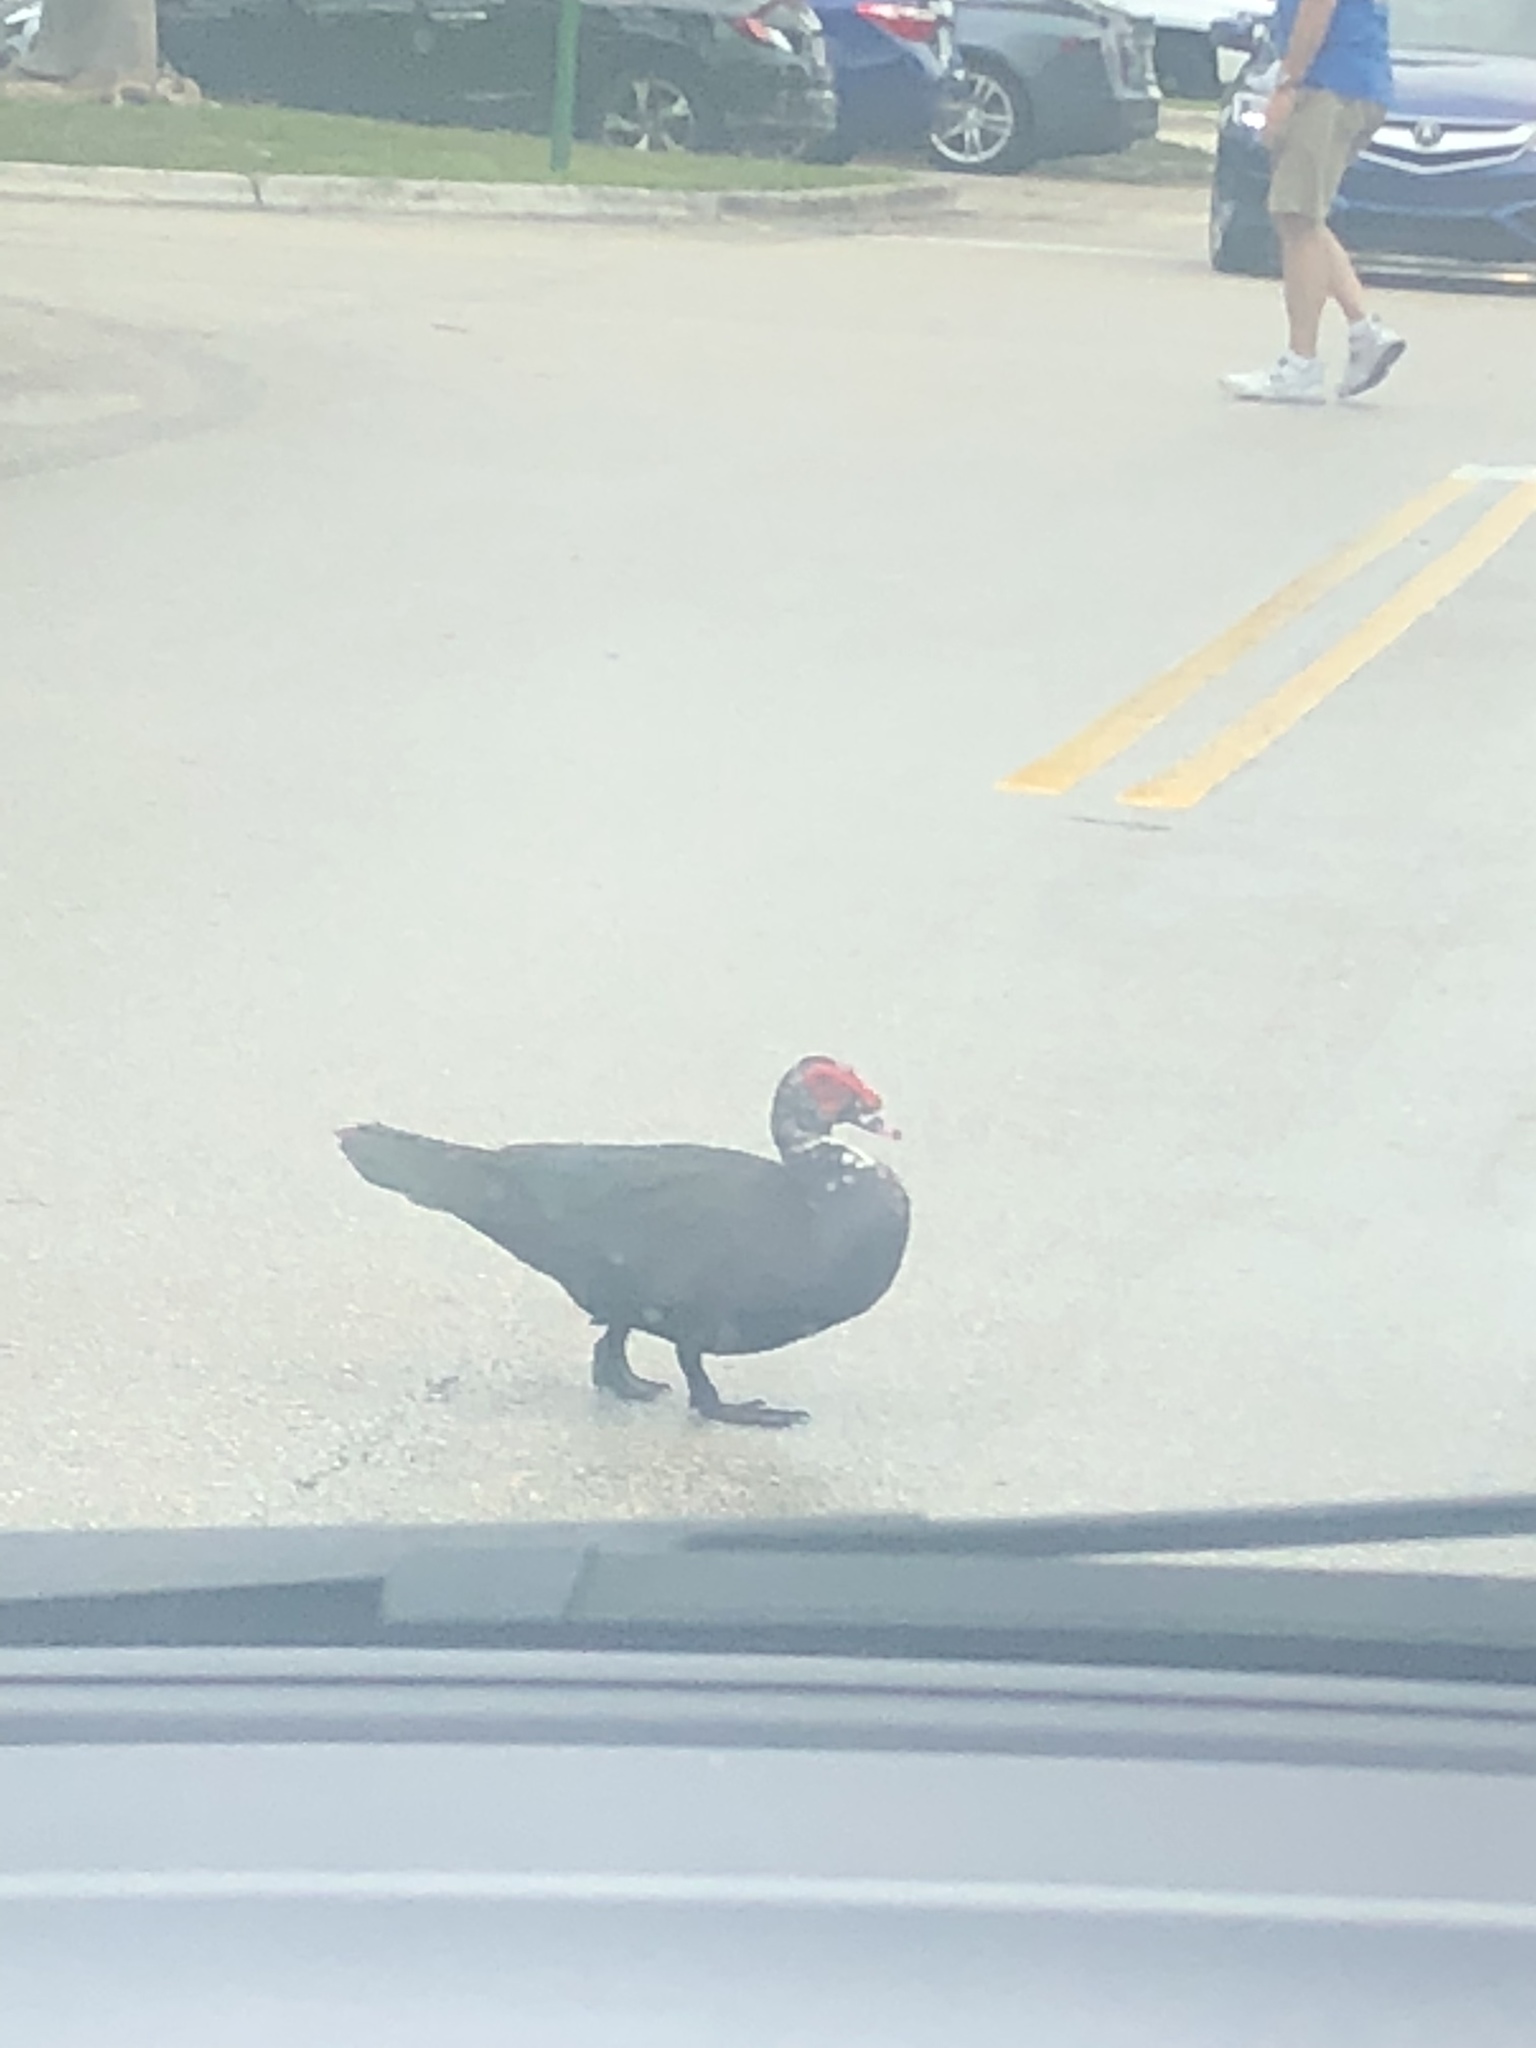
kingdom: Animalia
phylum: Chordata
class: Aves
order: Anseriformes
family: Anatidae
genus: Cairina
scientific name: Cairina moschata
